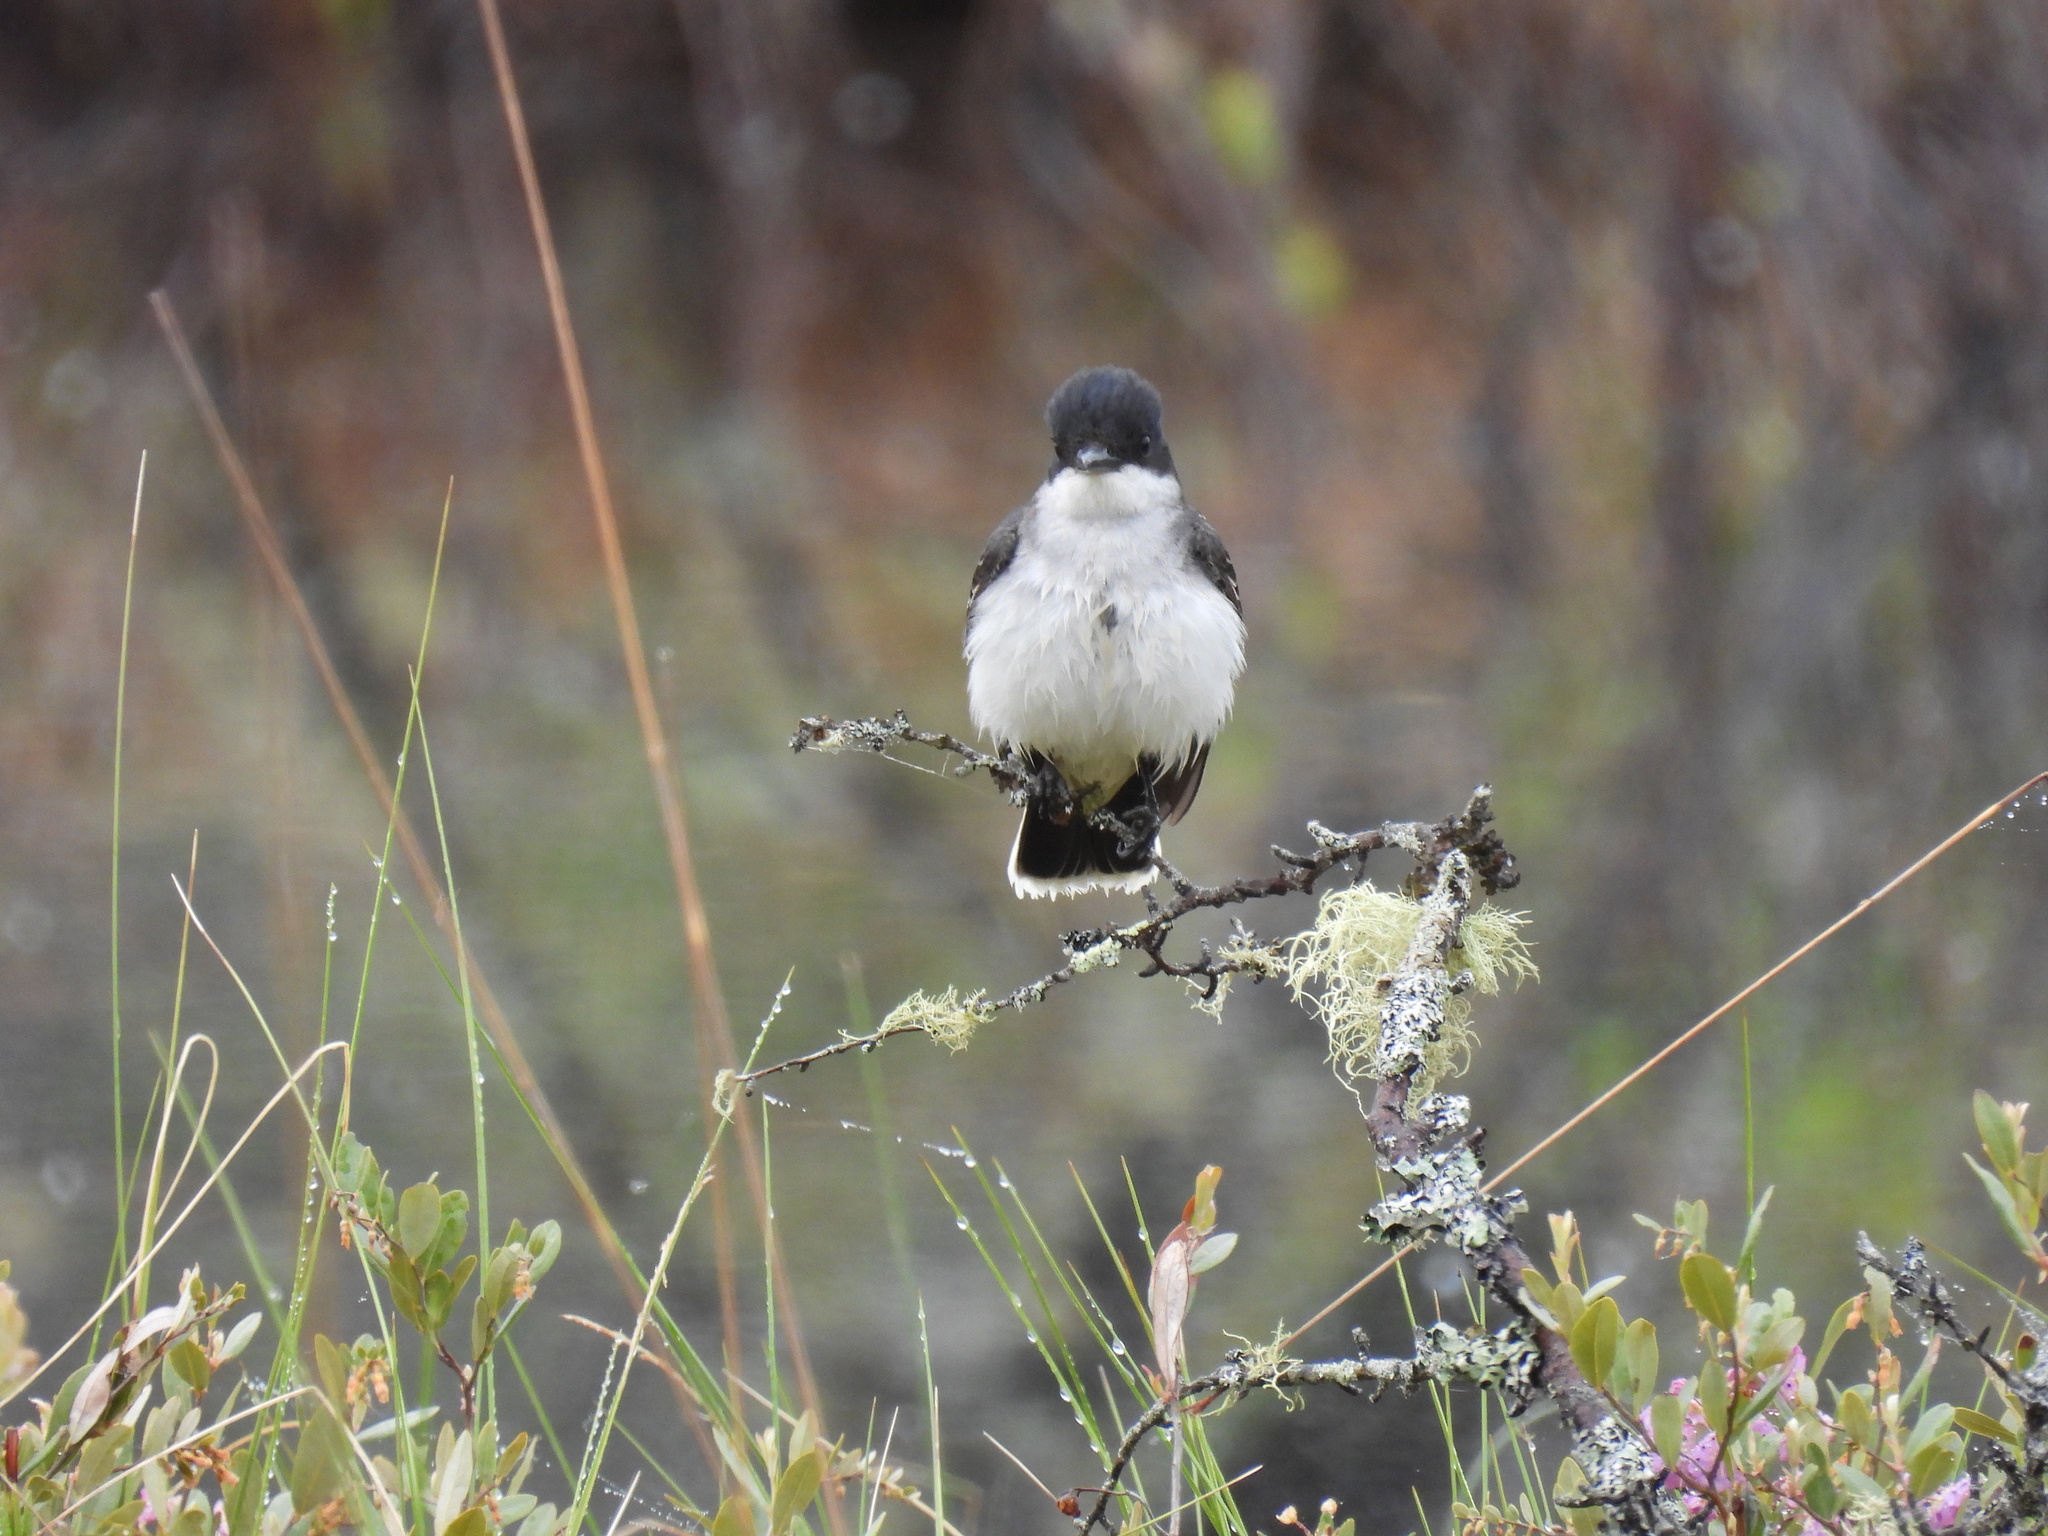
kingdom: Animalia
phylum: Chordata
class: Aves
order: Passeriformes
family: Tyrannidae
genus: Tyrannus
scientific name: Tyrannus tyrannus
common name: Eastern kingbird
